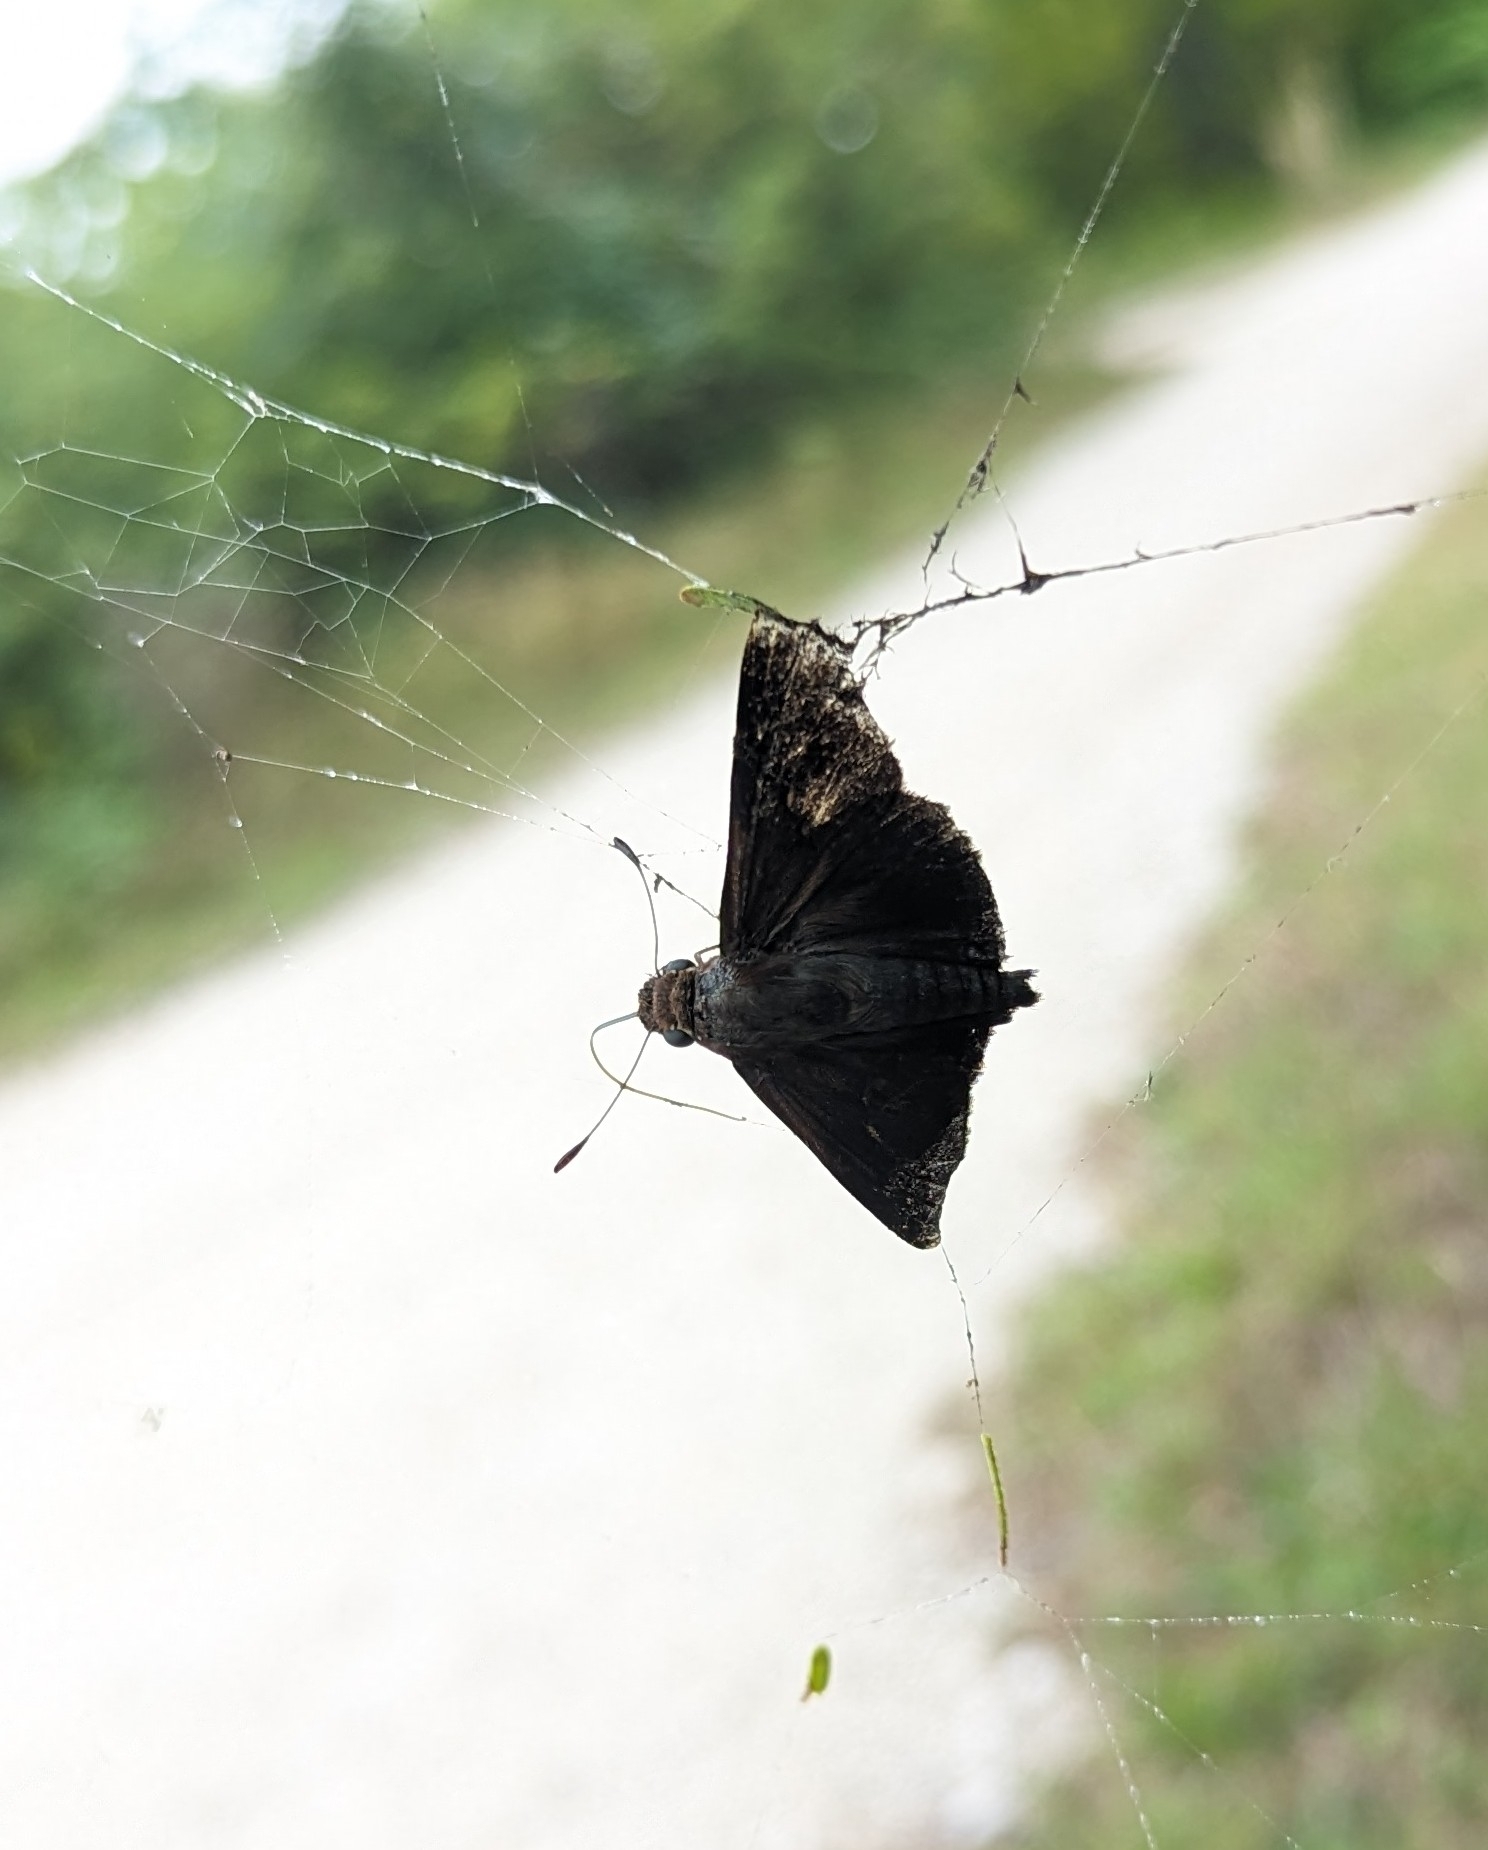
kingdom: Animalia
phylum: Arthropoda
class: Insecta
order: Lepidoptera
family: Hesperiidae
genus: Asbolis
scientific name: Asbolis capucinus
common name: Monk skipper
